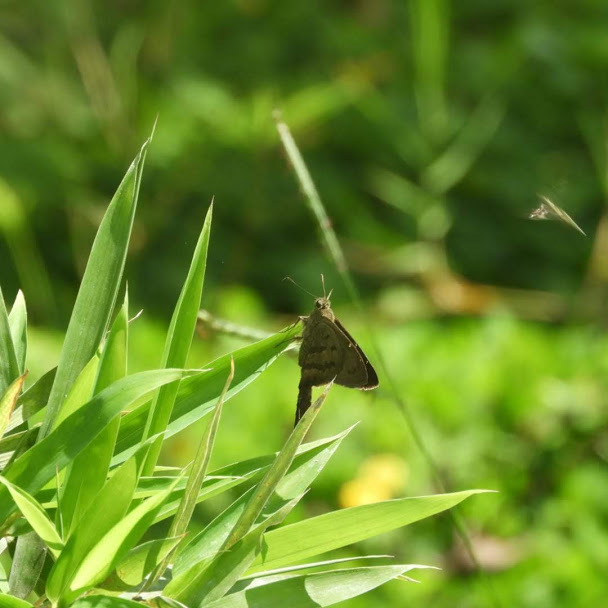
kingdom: Animalia
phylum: Arthropoda
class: Insecta
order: Lepidoptera
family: Hesperiidae
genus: Urbanus
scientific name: Urbanus procne
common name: Brown longtail
